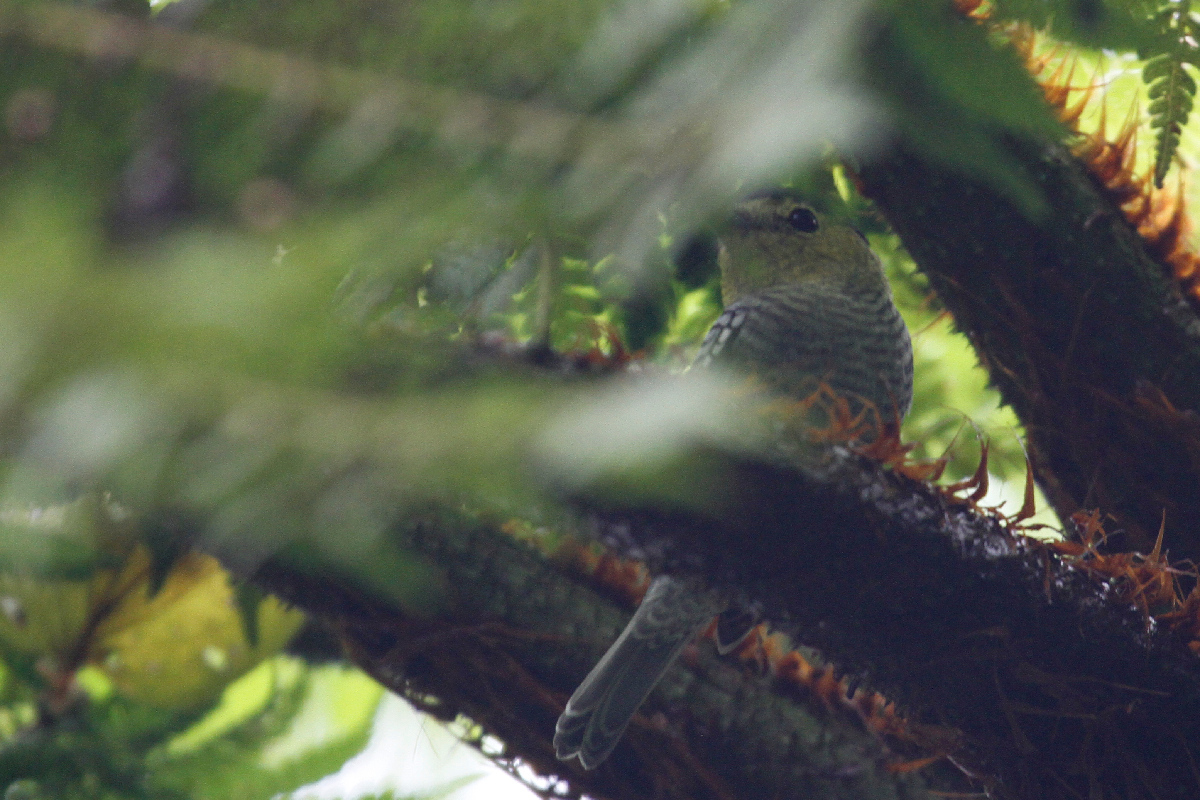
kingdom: Animalia
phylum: Chordata
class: Aves
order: Passeriformes
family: Cotingidae
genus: Pachyramphus
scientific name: Pachyramphus versicolor
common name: Barred becard
